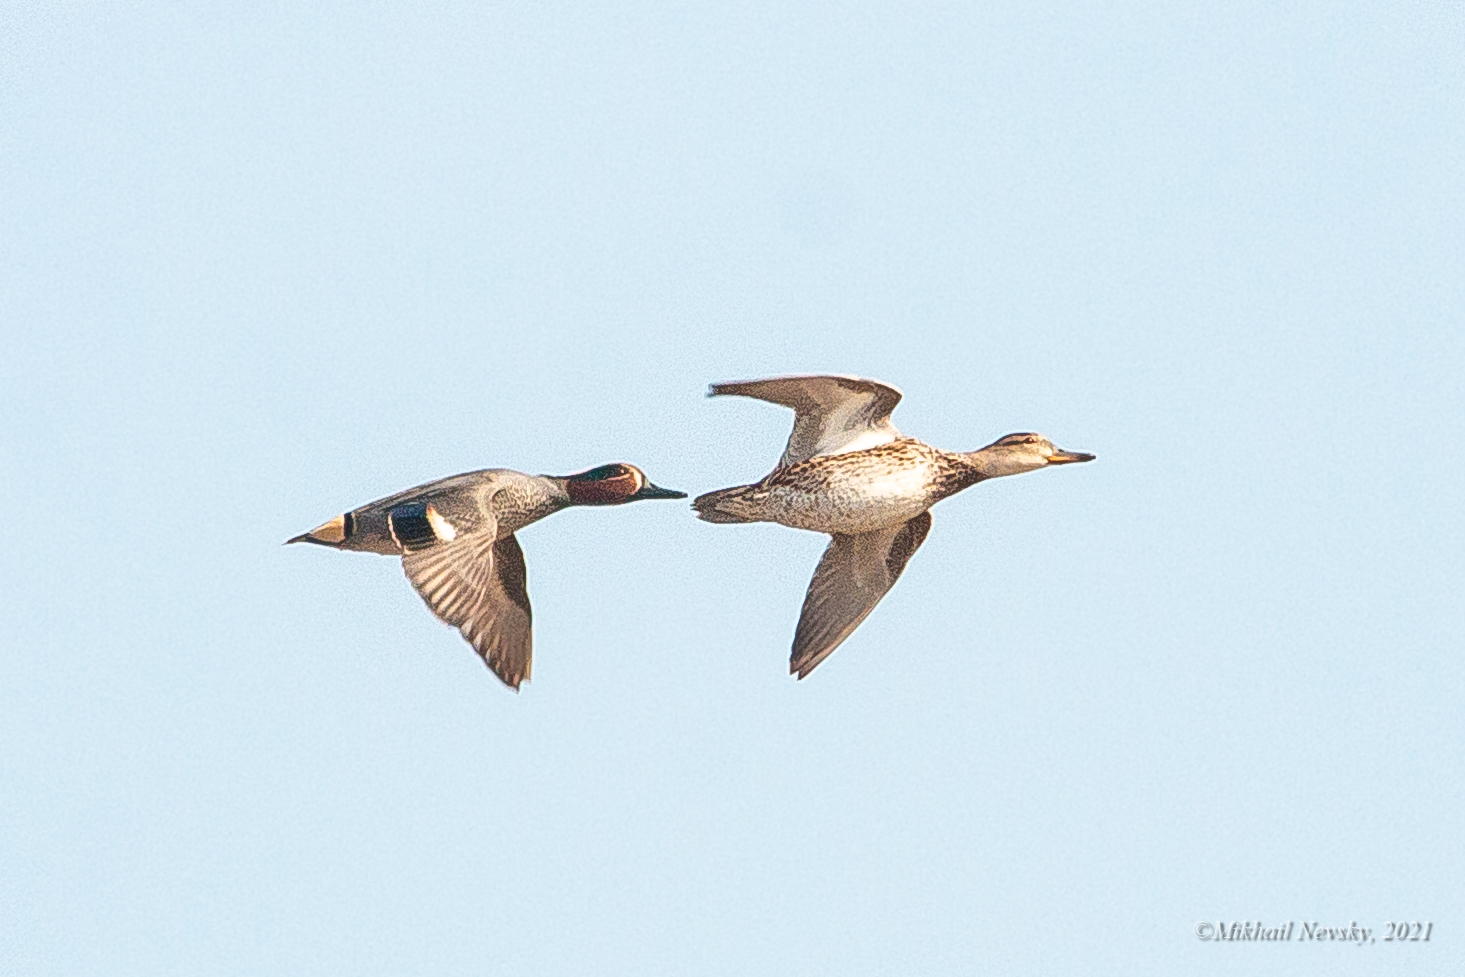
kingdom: Animalia
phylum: Chordata
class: Aves
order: Anseriformes
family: Anatidae
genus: Anas
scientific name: Anas crecca
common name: Eurasian teal
